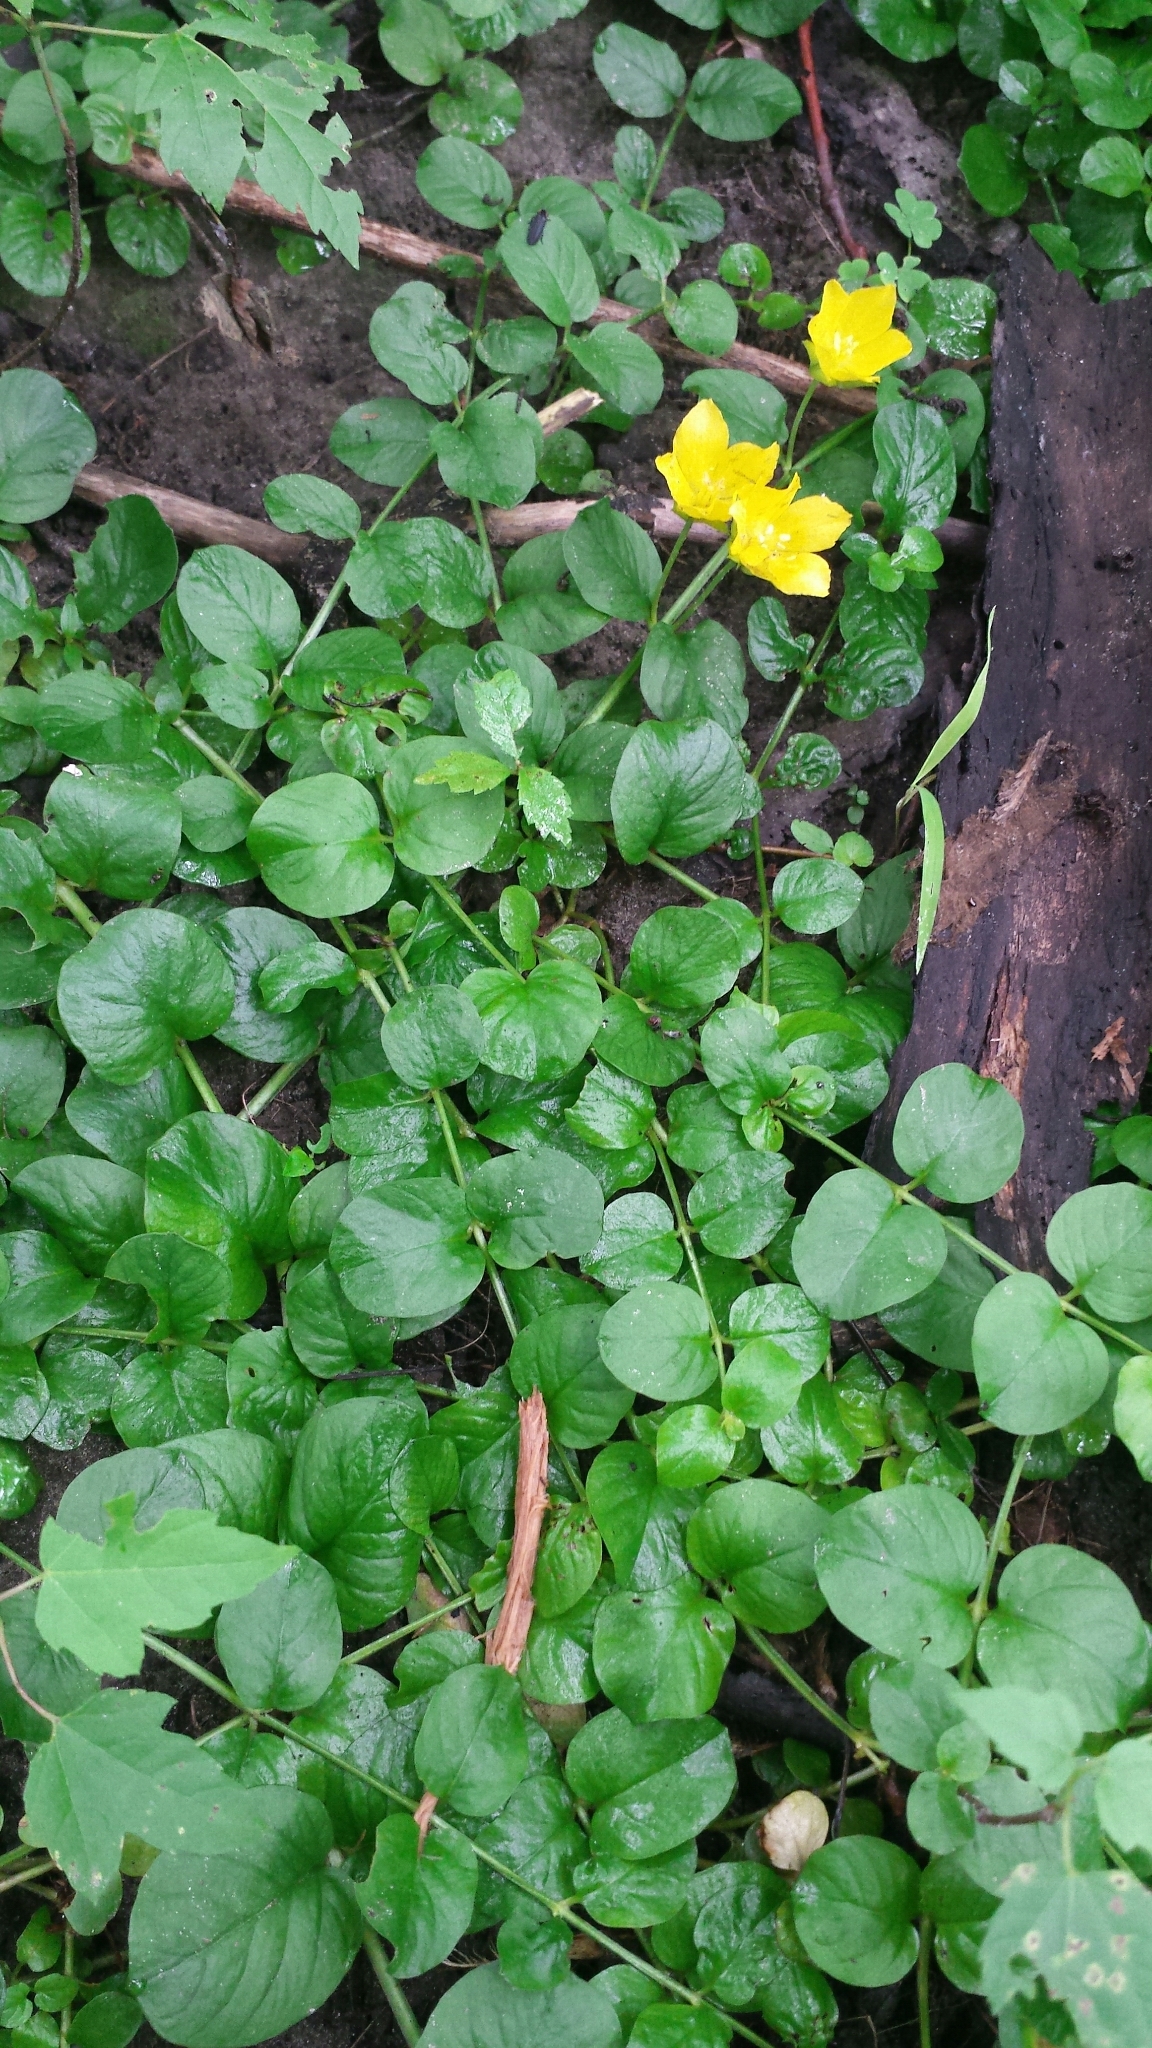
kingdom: Plantae
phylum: Tracheophyta
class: Magnoliopsida
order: Ericales
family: Primulaceae
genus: Lysimachia
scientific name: Lysimachia nummularia
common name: Moneywort
